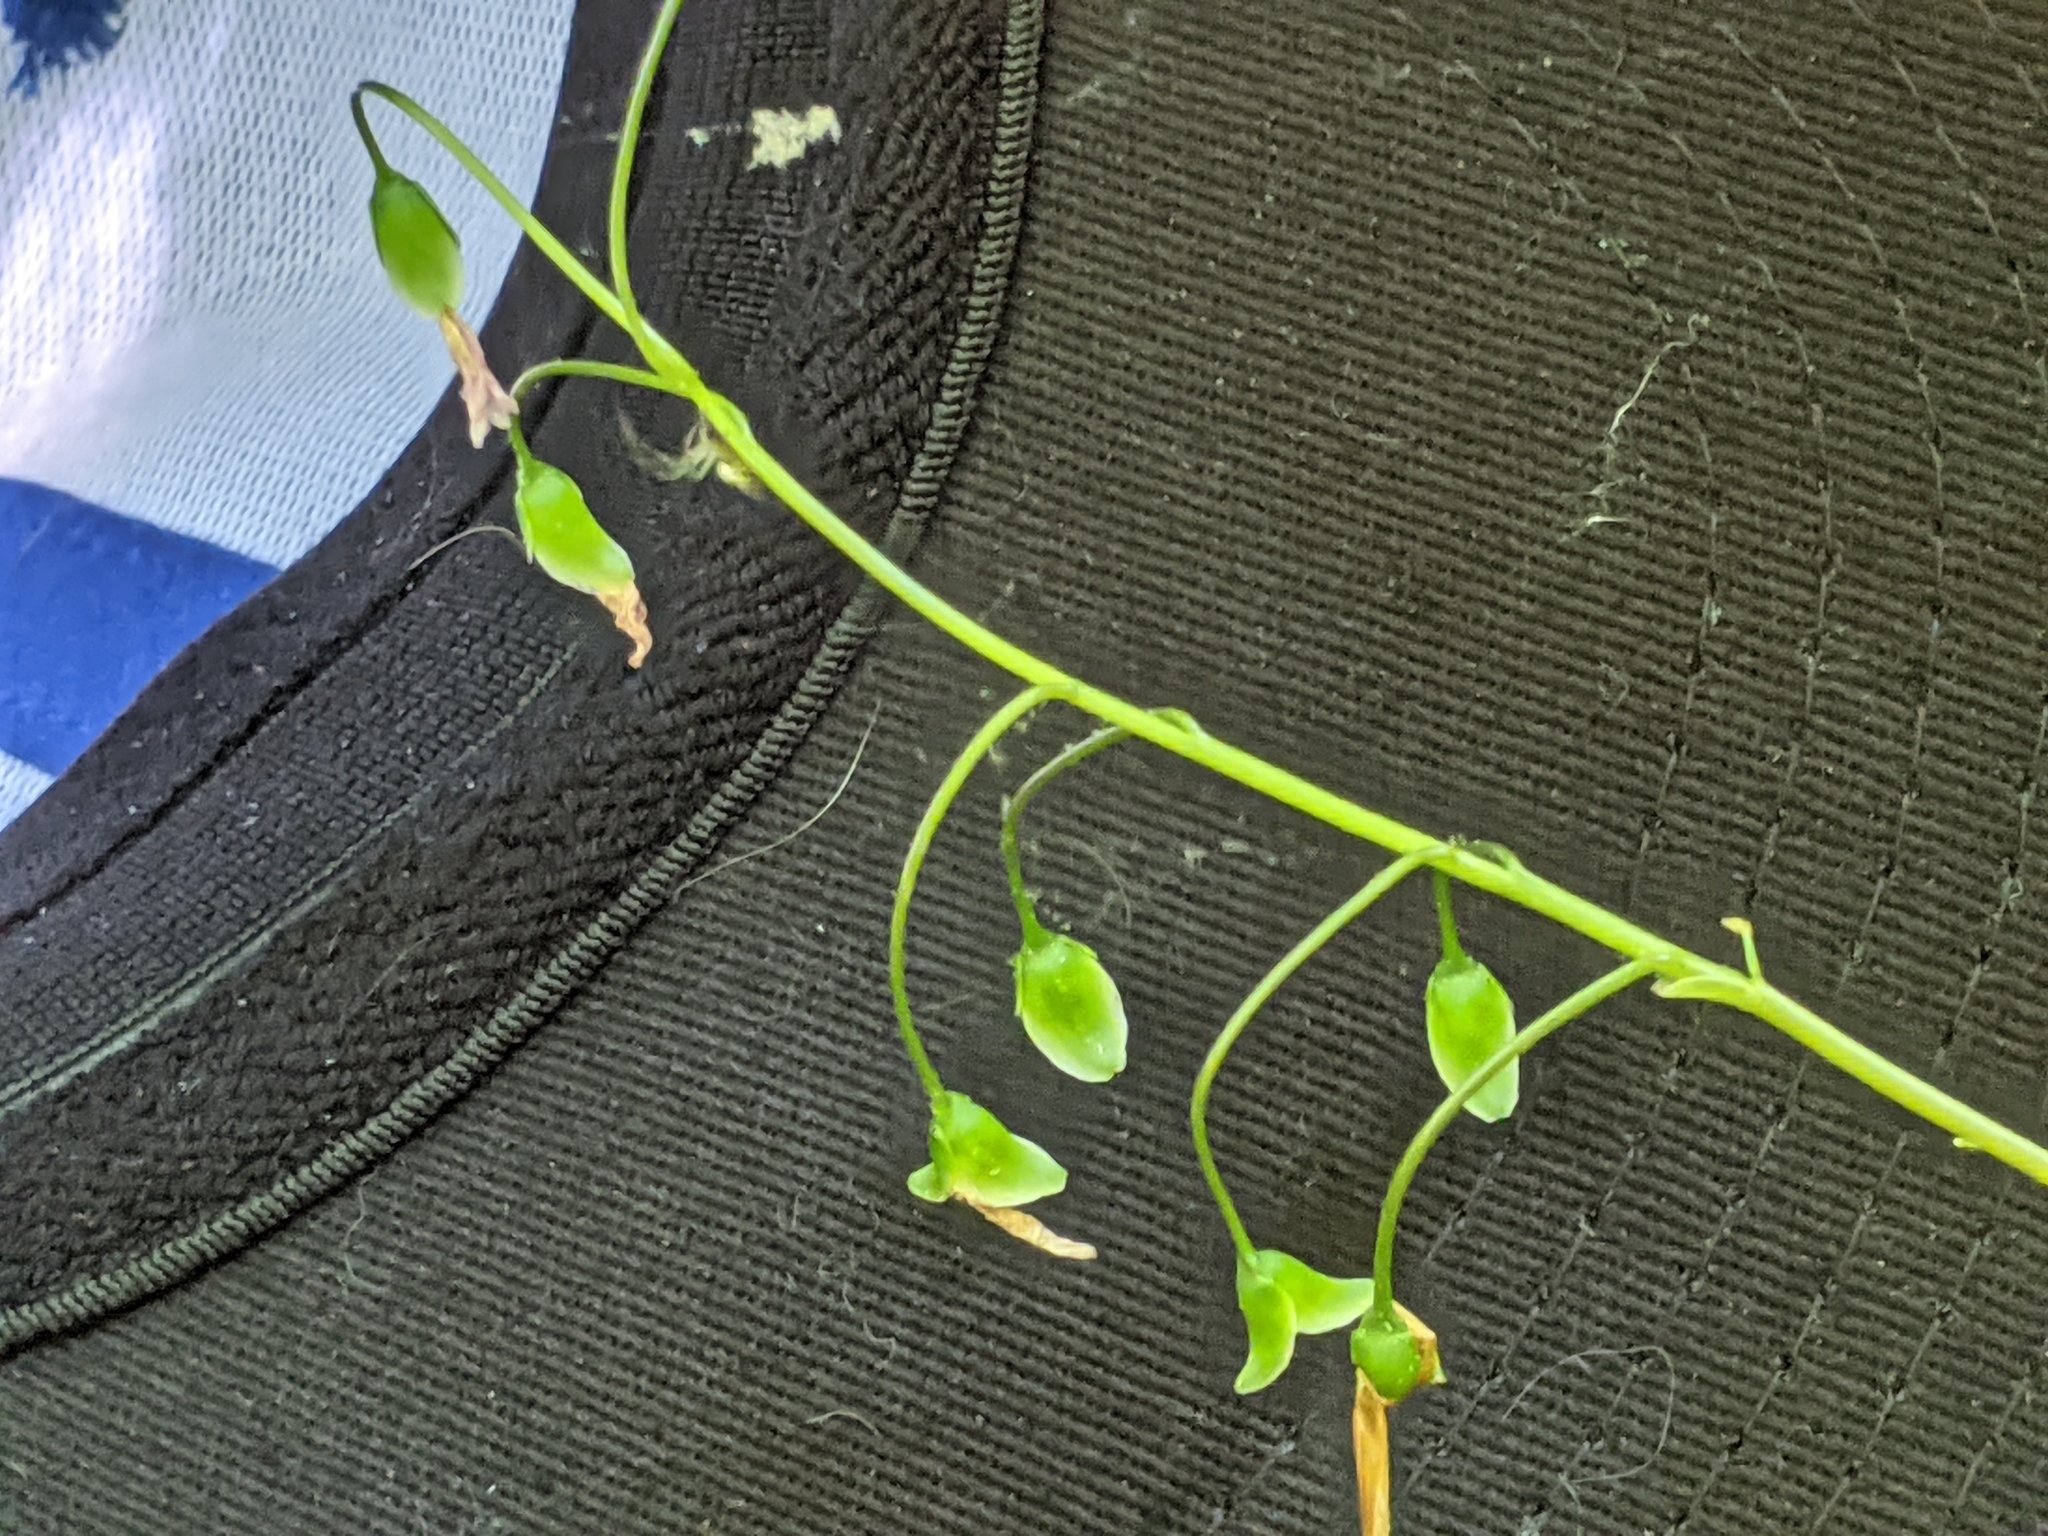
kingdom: Plantae
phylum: Tracheophyta
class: Magnoliopsida
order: Caryophyllales
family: Montiaceae
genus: Claytonia
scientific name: Claytonia virginica
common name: Virginia springbeauty
